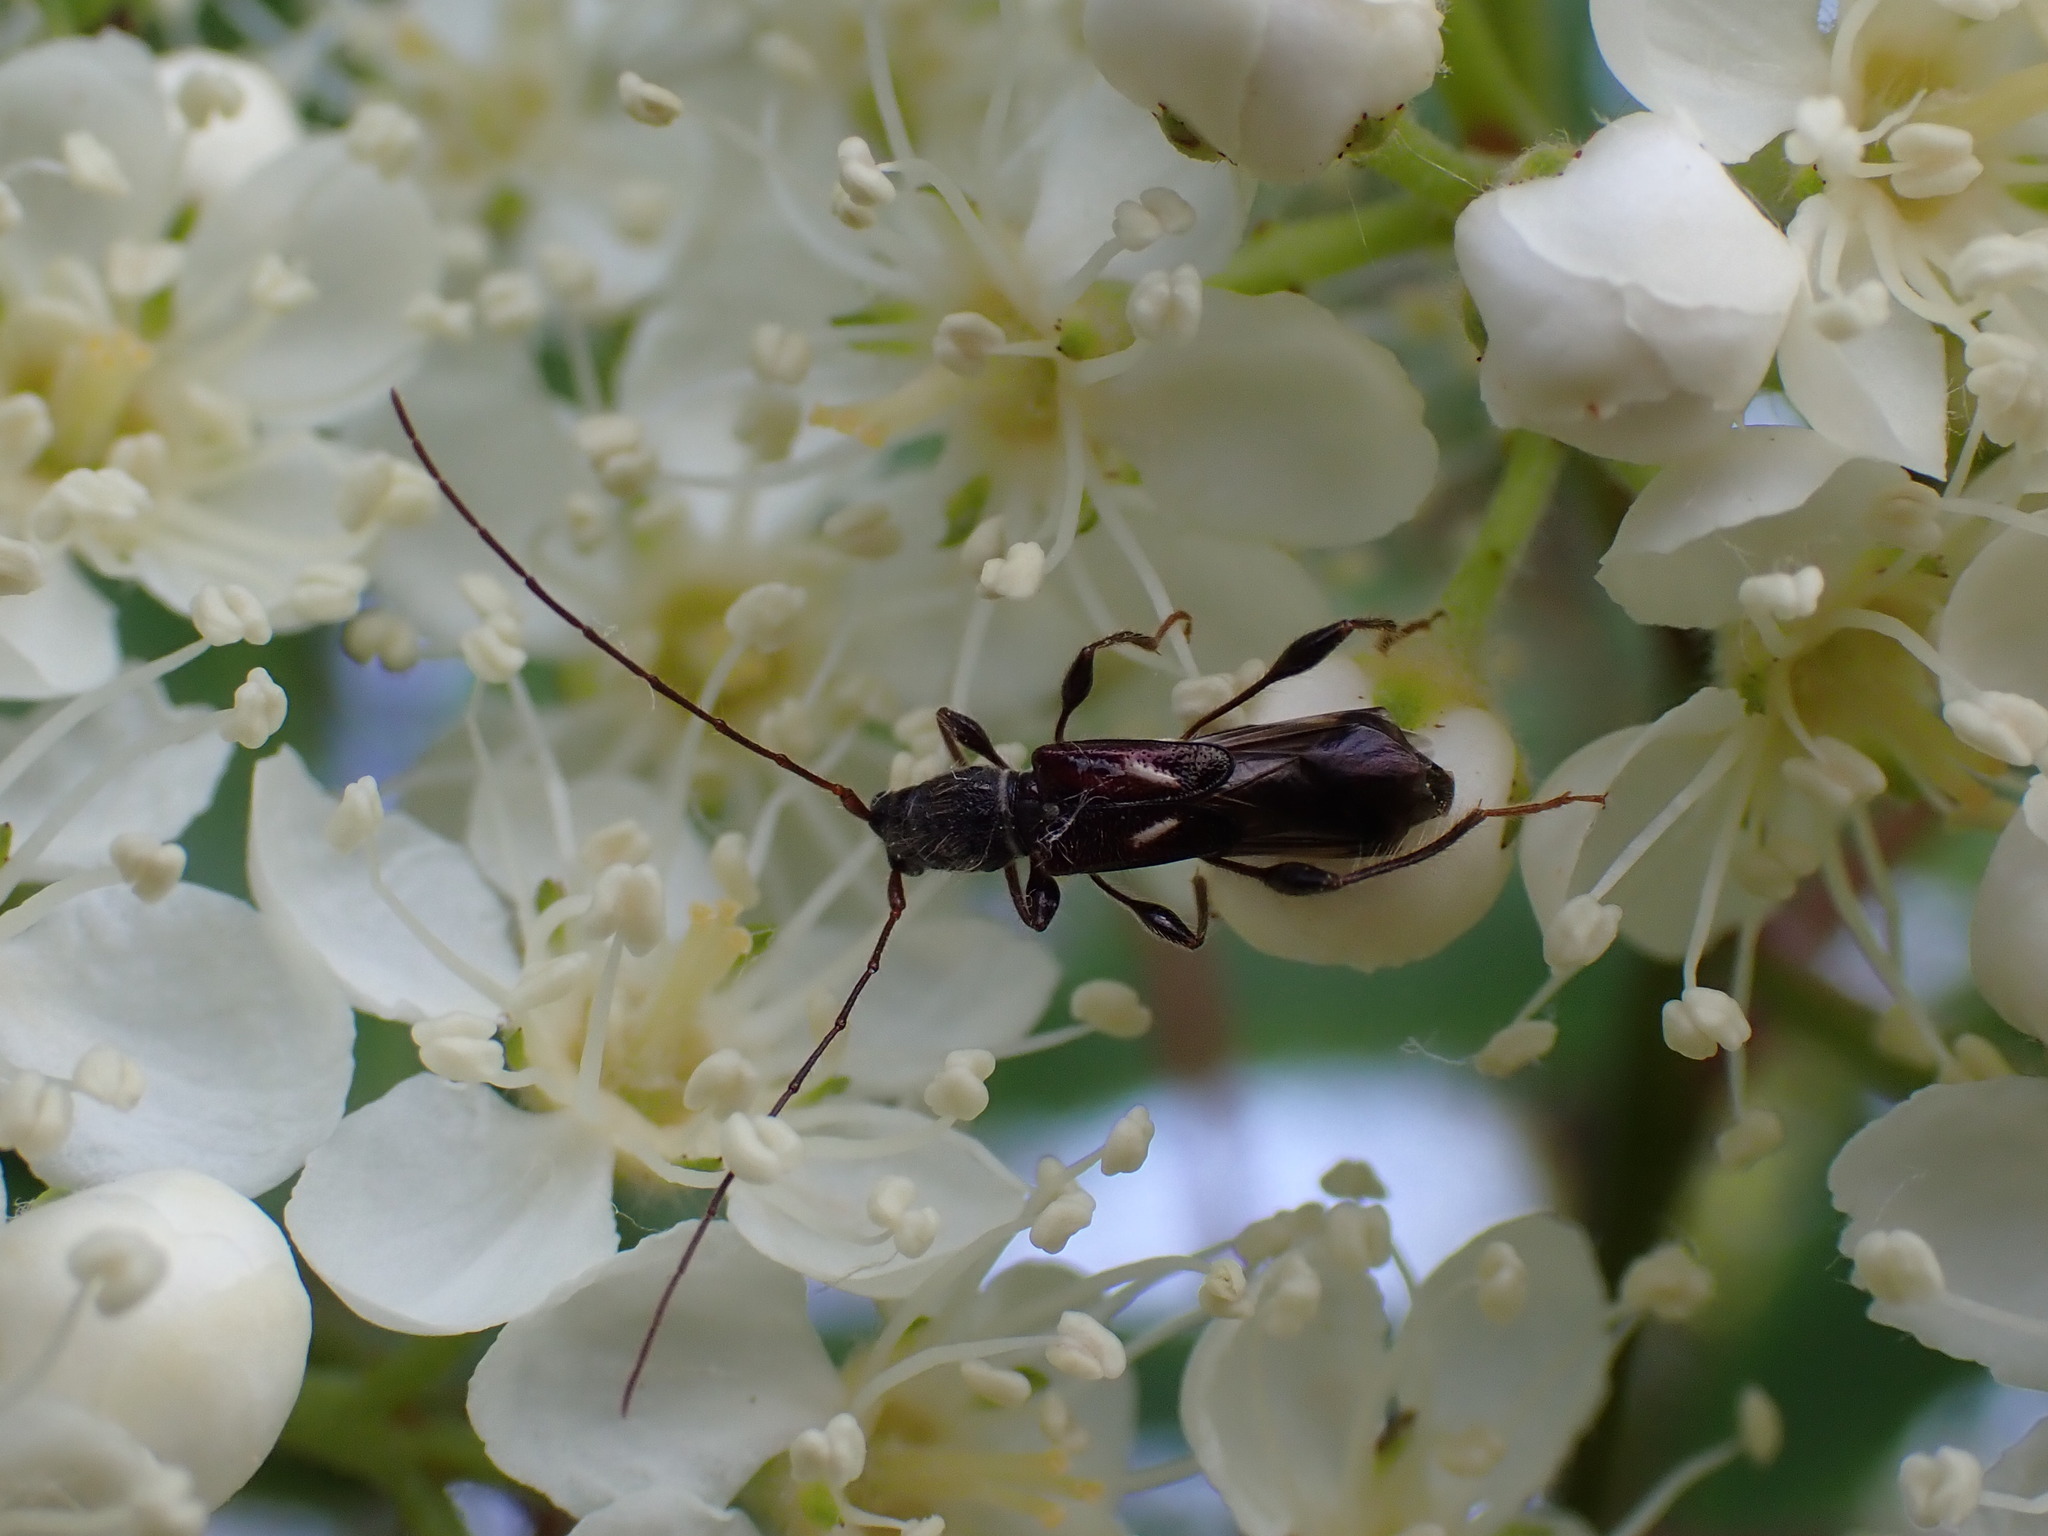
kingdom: Animalia
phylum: Arthropoda
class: Insecta
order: Coleoptera
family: Cerambycidae
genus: Molorchus
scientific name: Molorchus minor
